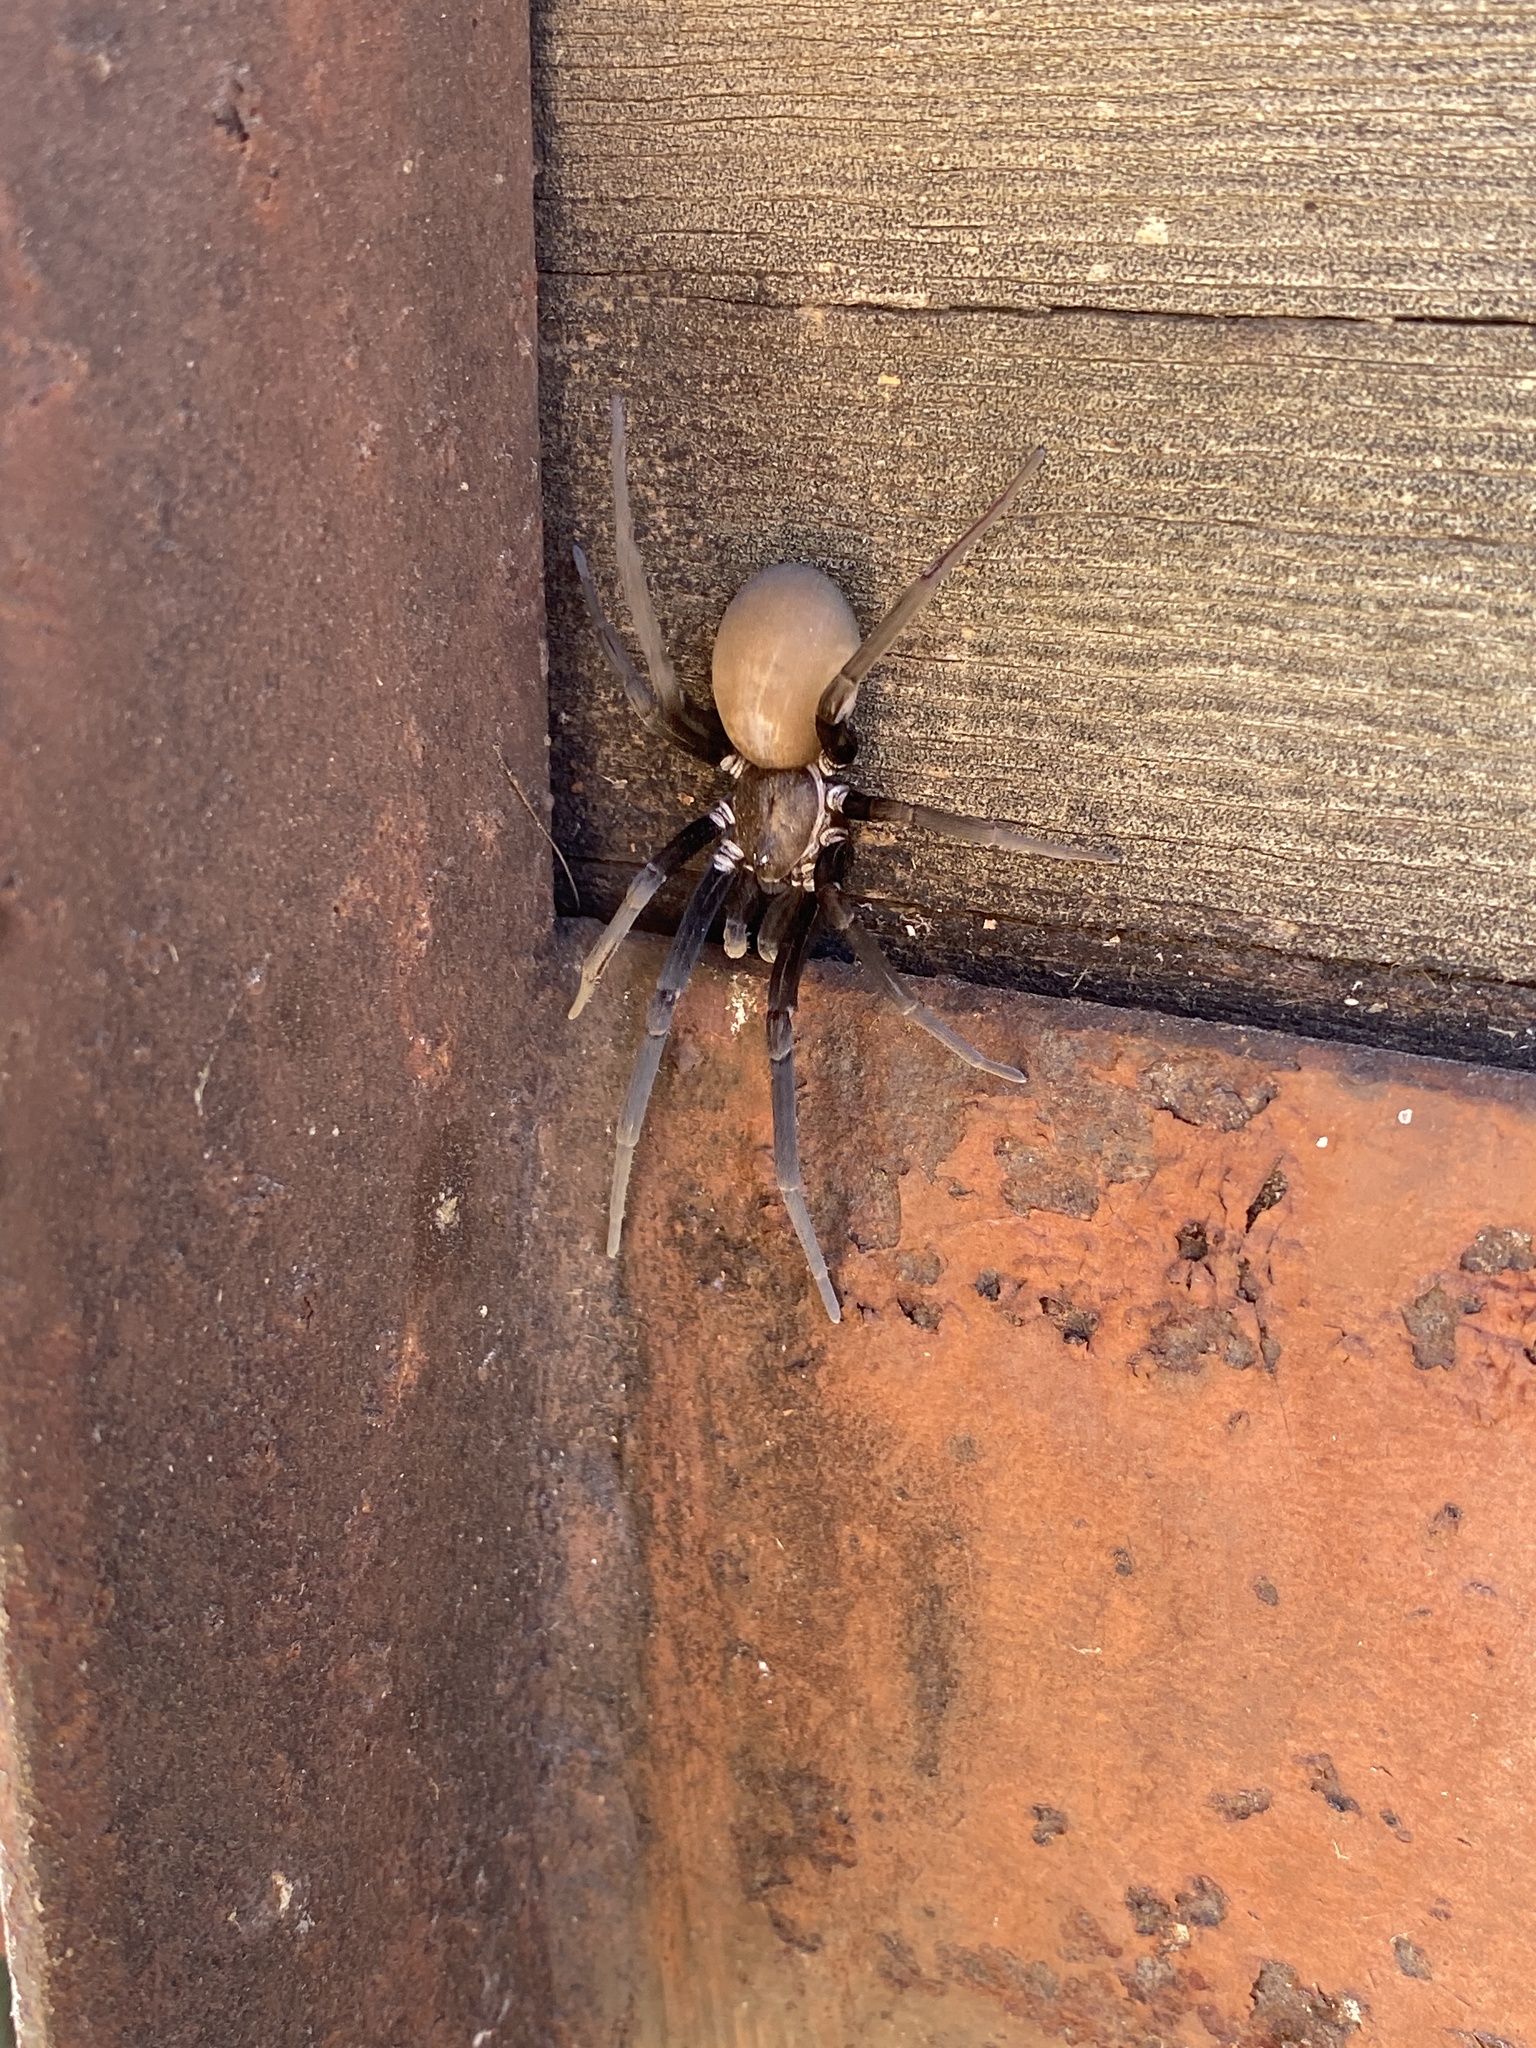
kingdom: Animalia
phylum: Arthropoda
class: Arachnida
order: Araneae
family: Filistatidae
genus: Kukulcania
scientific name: Kukulcania arizonica
